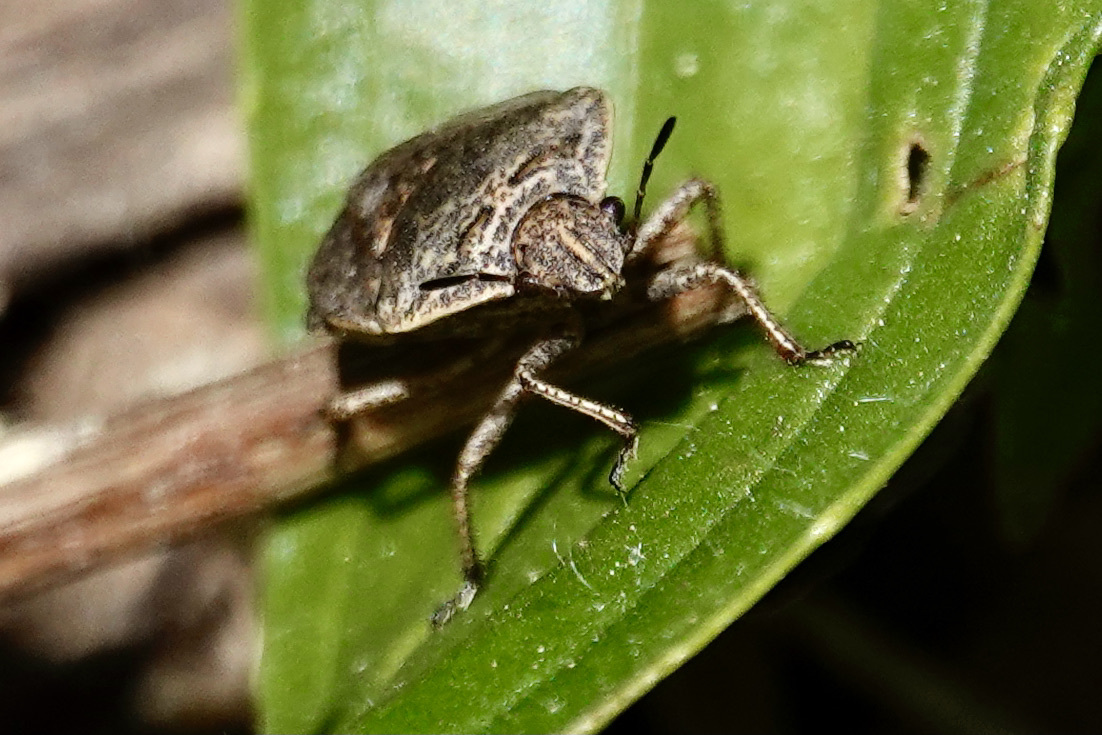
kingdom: Animalia
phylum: Arthropoda
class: Insecta
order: Hemiptera
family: Pentatomidae
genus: Hymenarcys
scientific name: Hymenarcys nervosa
